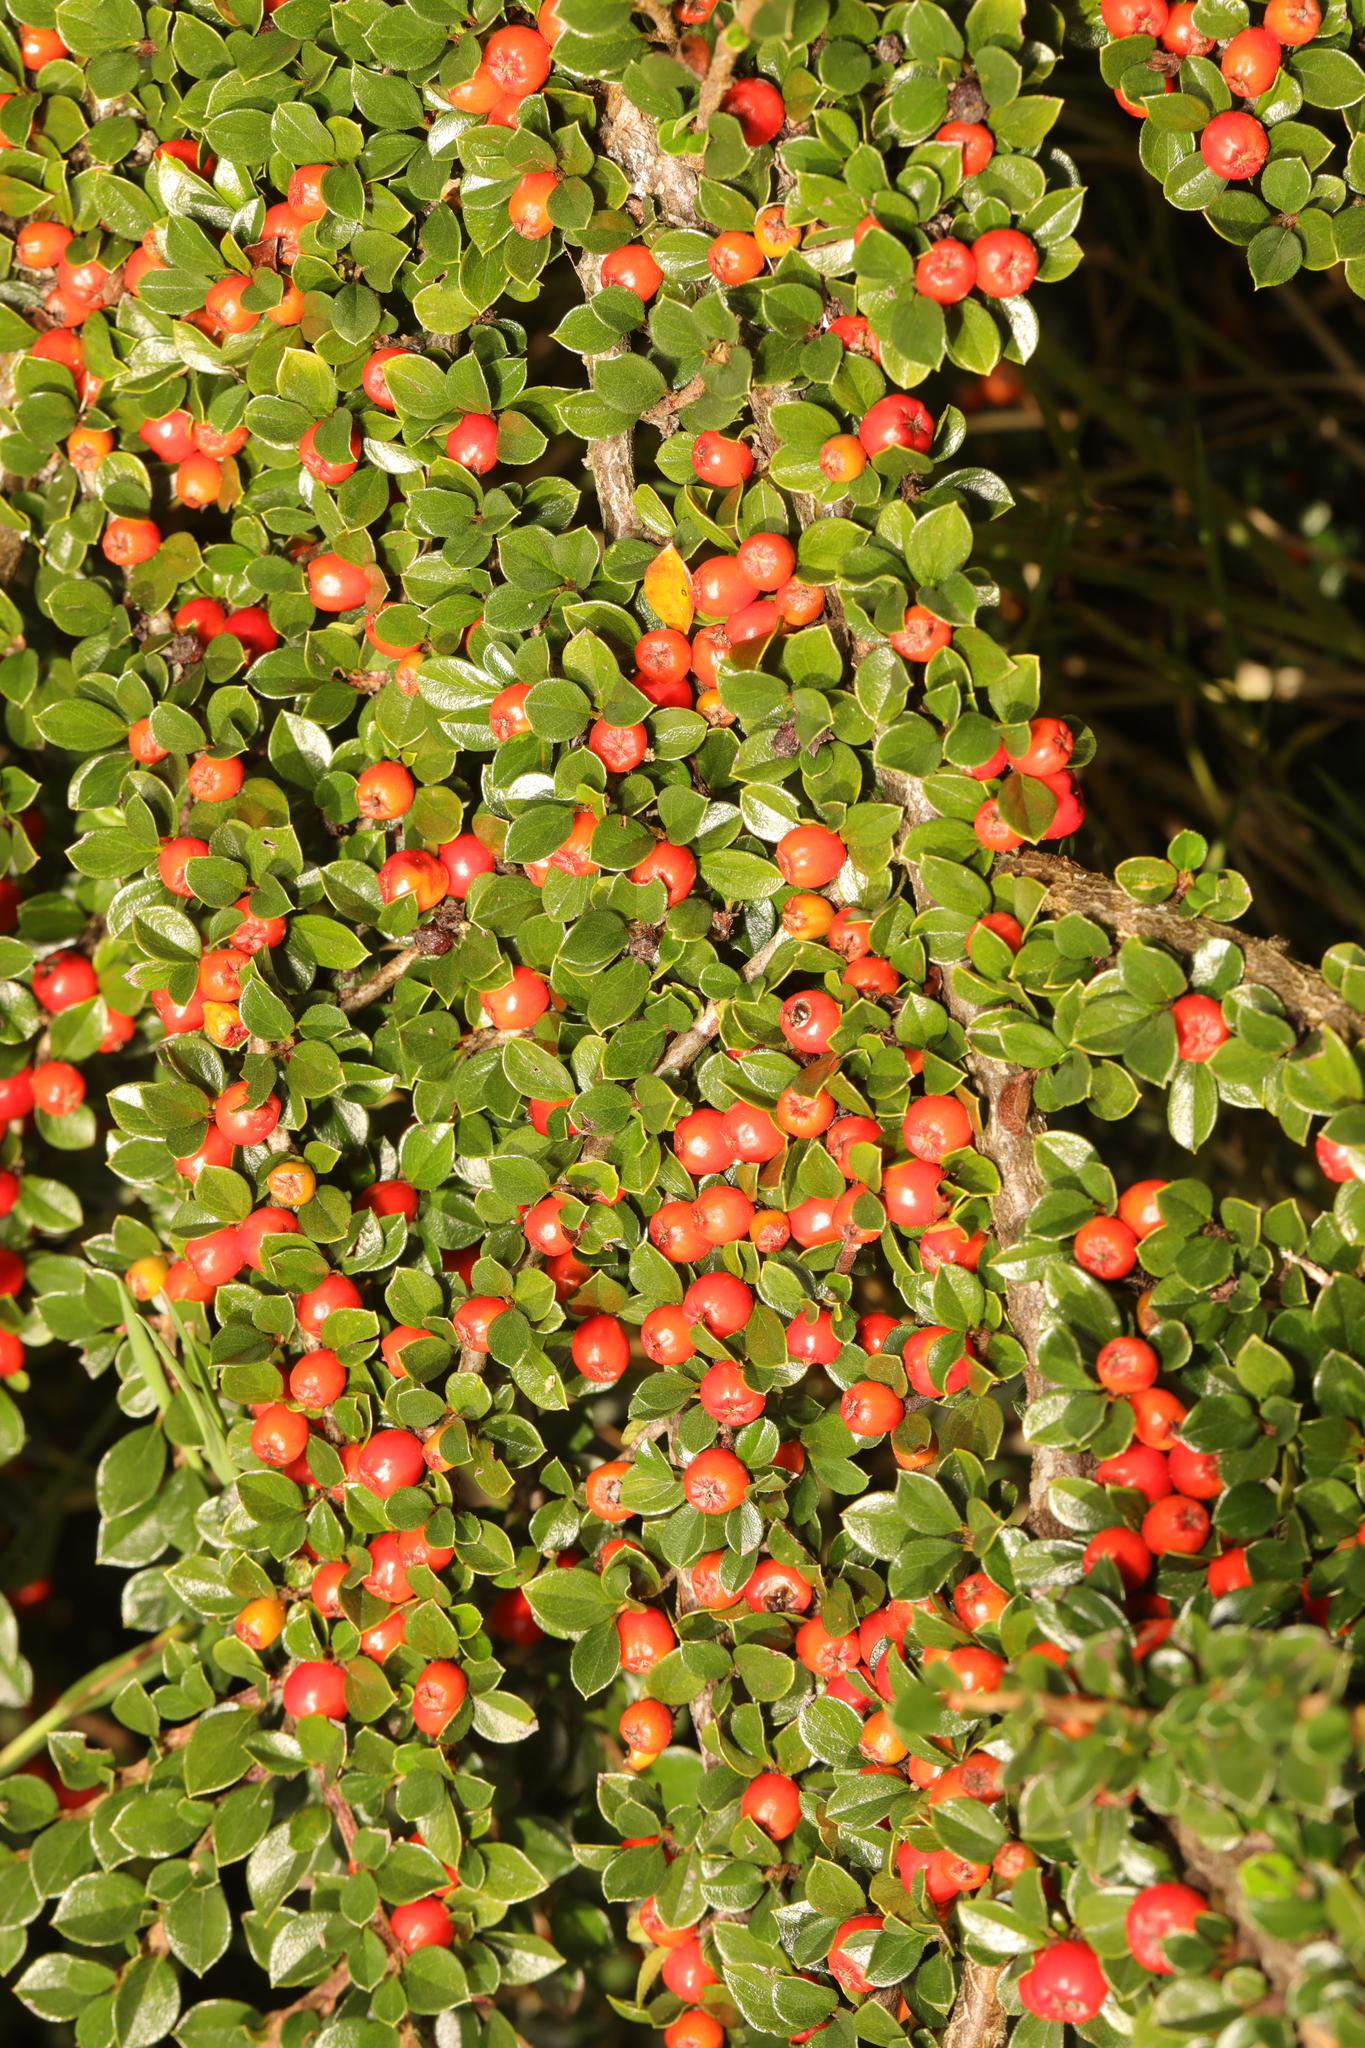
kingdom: Plantae
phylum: Tracheophyta
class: Magnoliopsida
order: Rosales
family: Rosaceae
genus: Cotoneaster
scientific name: Cotoneaster horizontalis
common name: Wall cotoneaster
